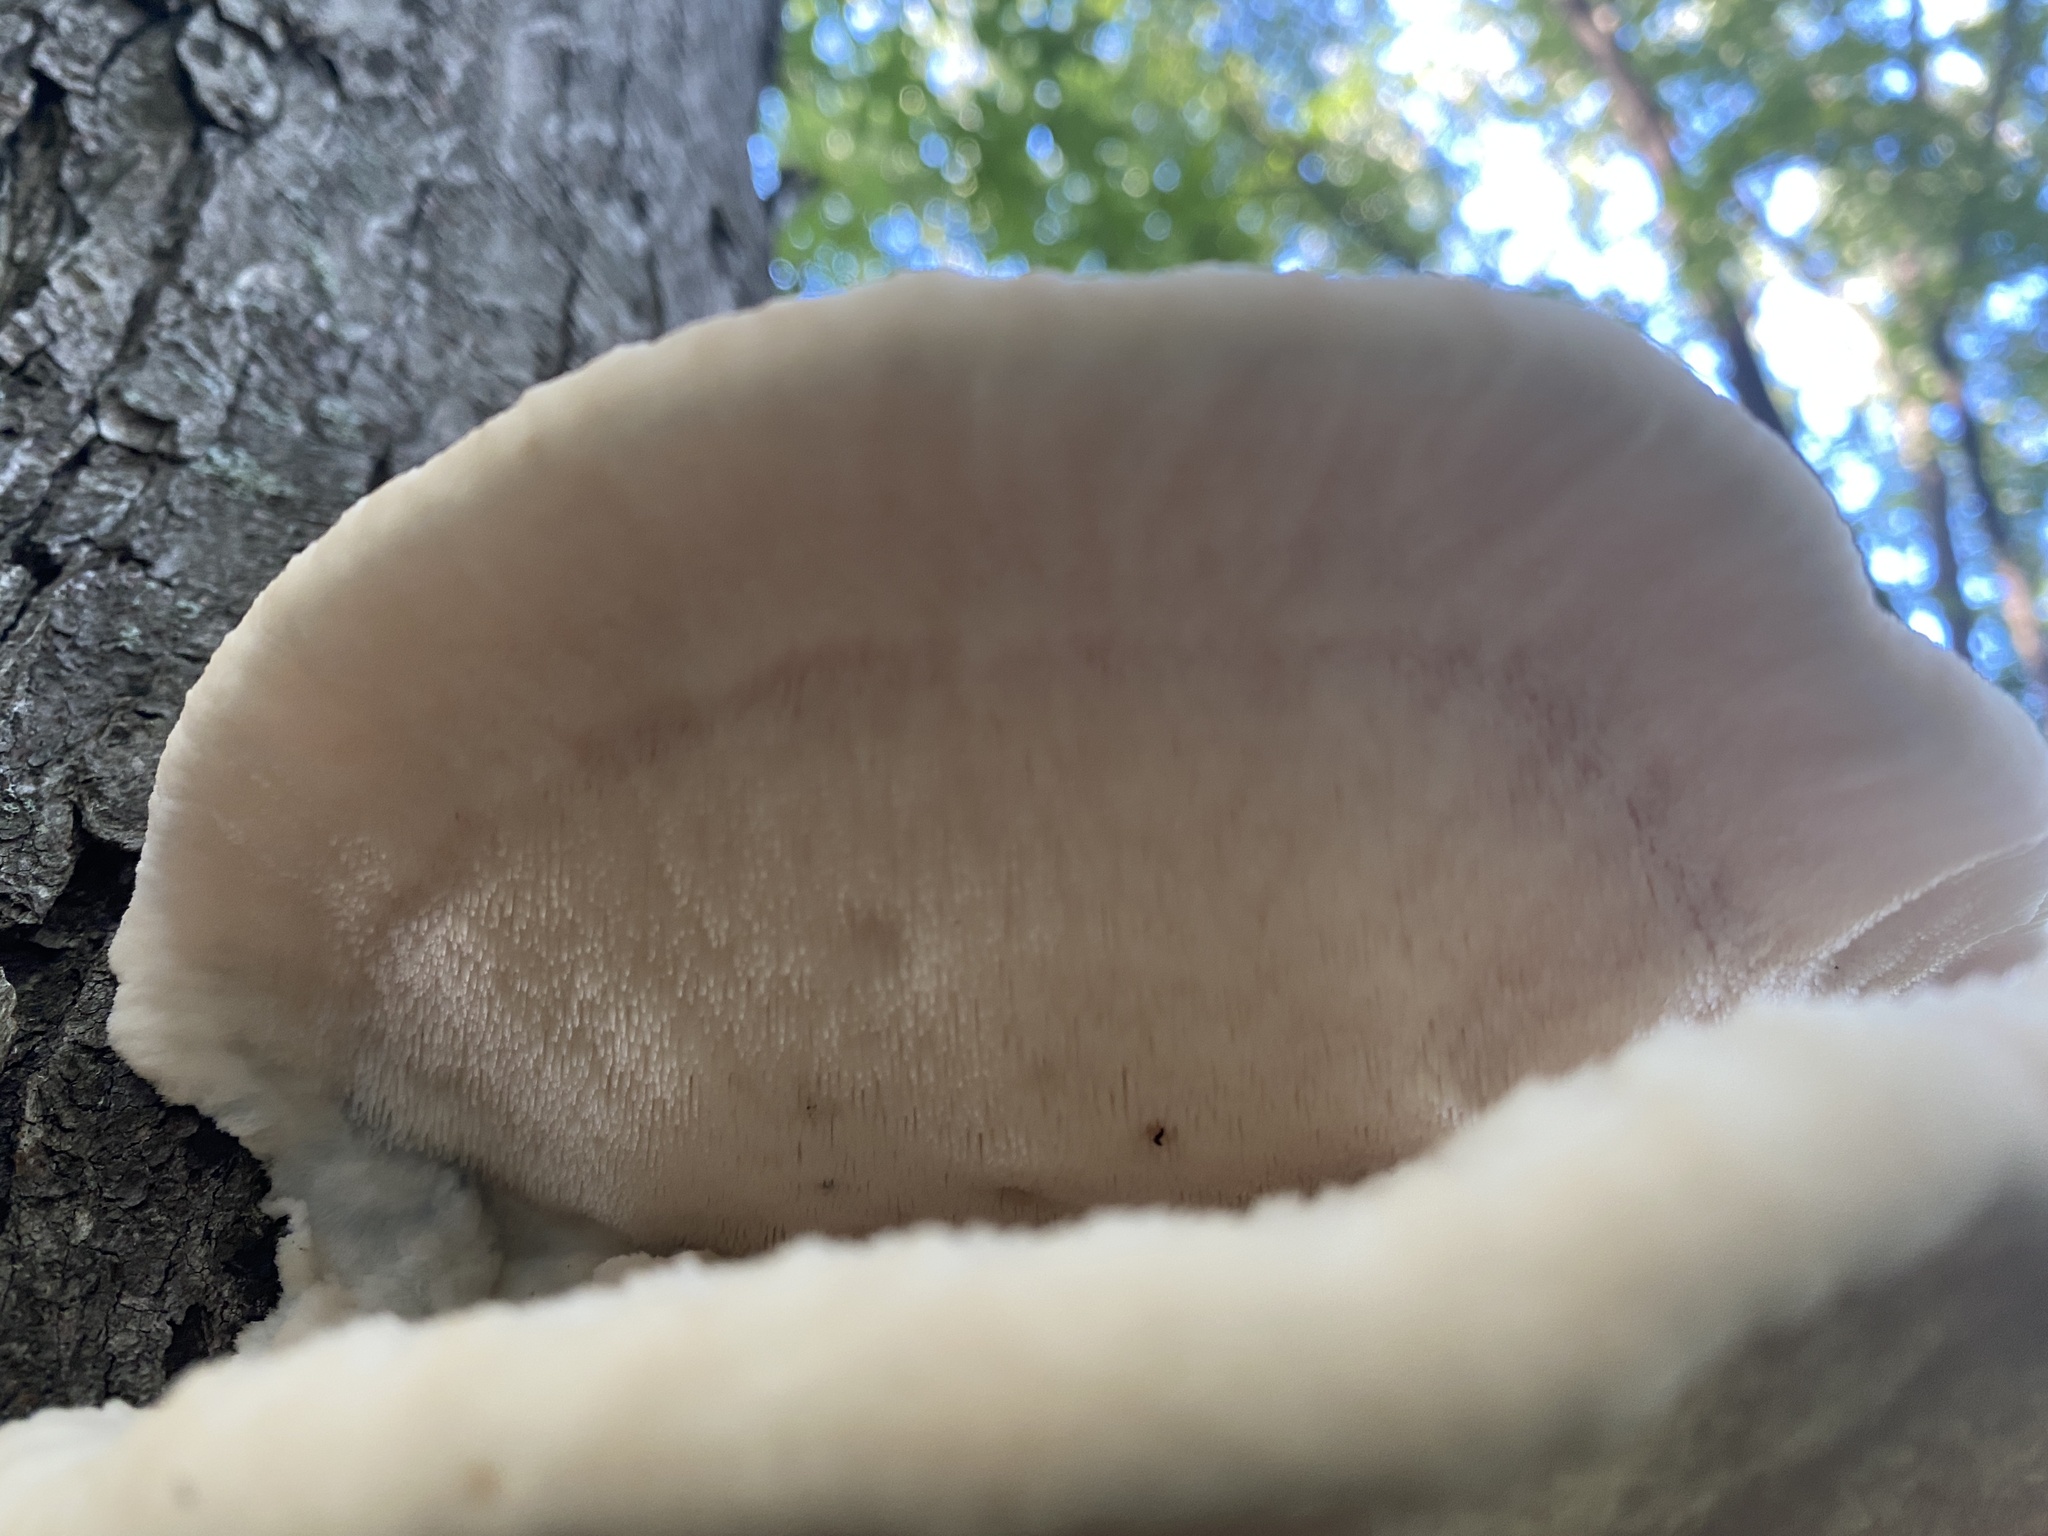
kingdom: Fungi
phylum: Basidiomycota
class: Agaricomycetes
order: Polyporales
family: Meruliaceae
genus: Climacodon
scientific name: Climacodon septentrionalis
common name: Northern tooth
